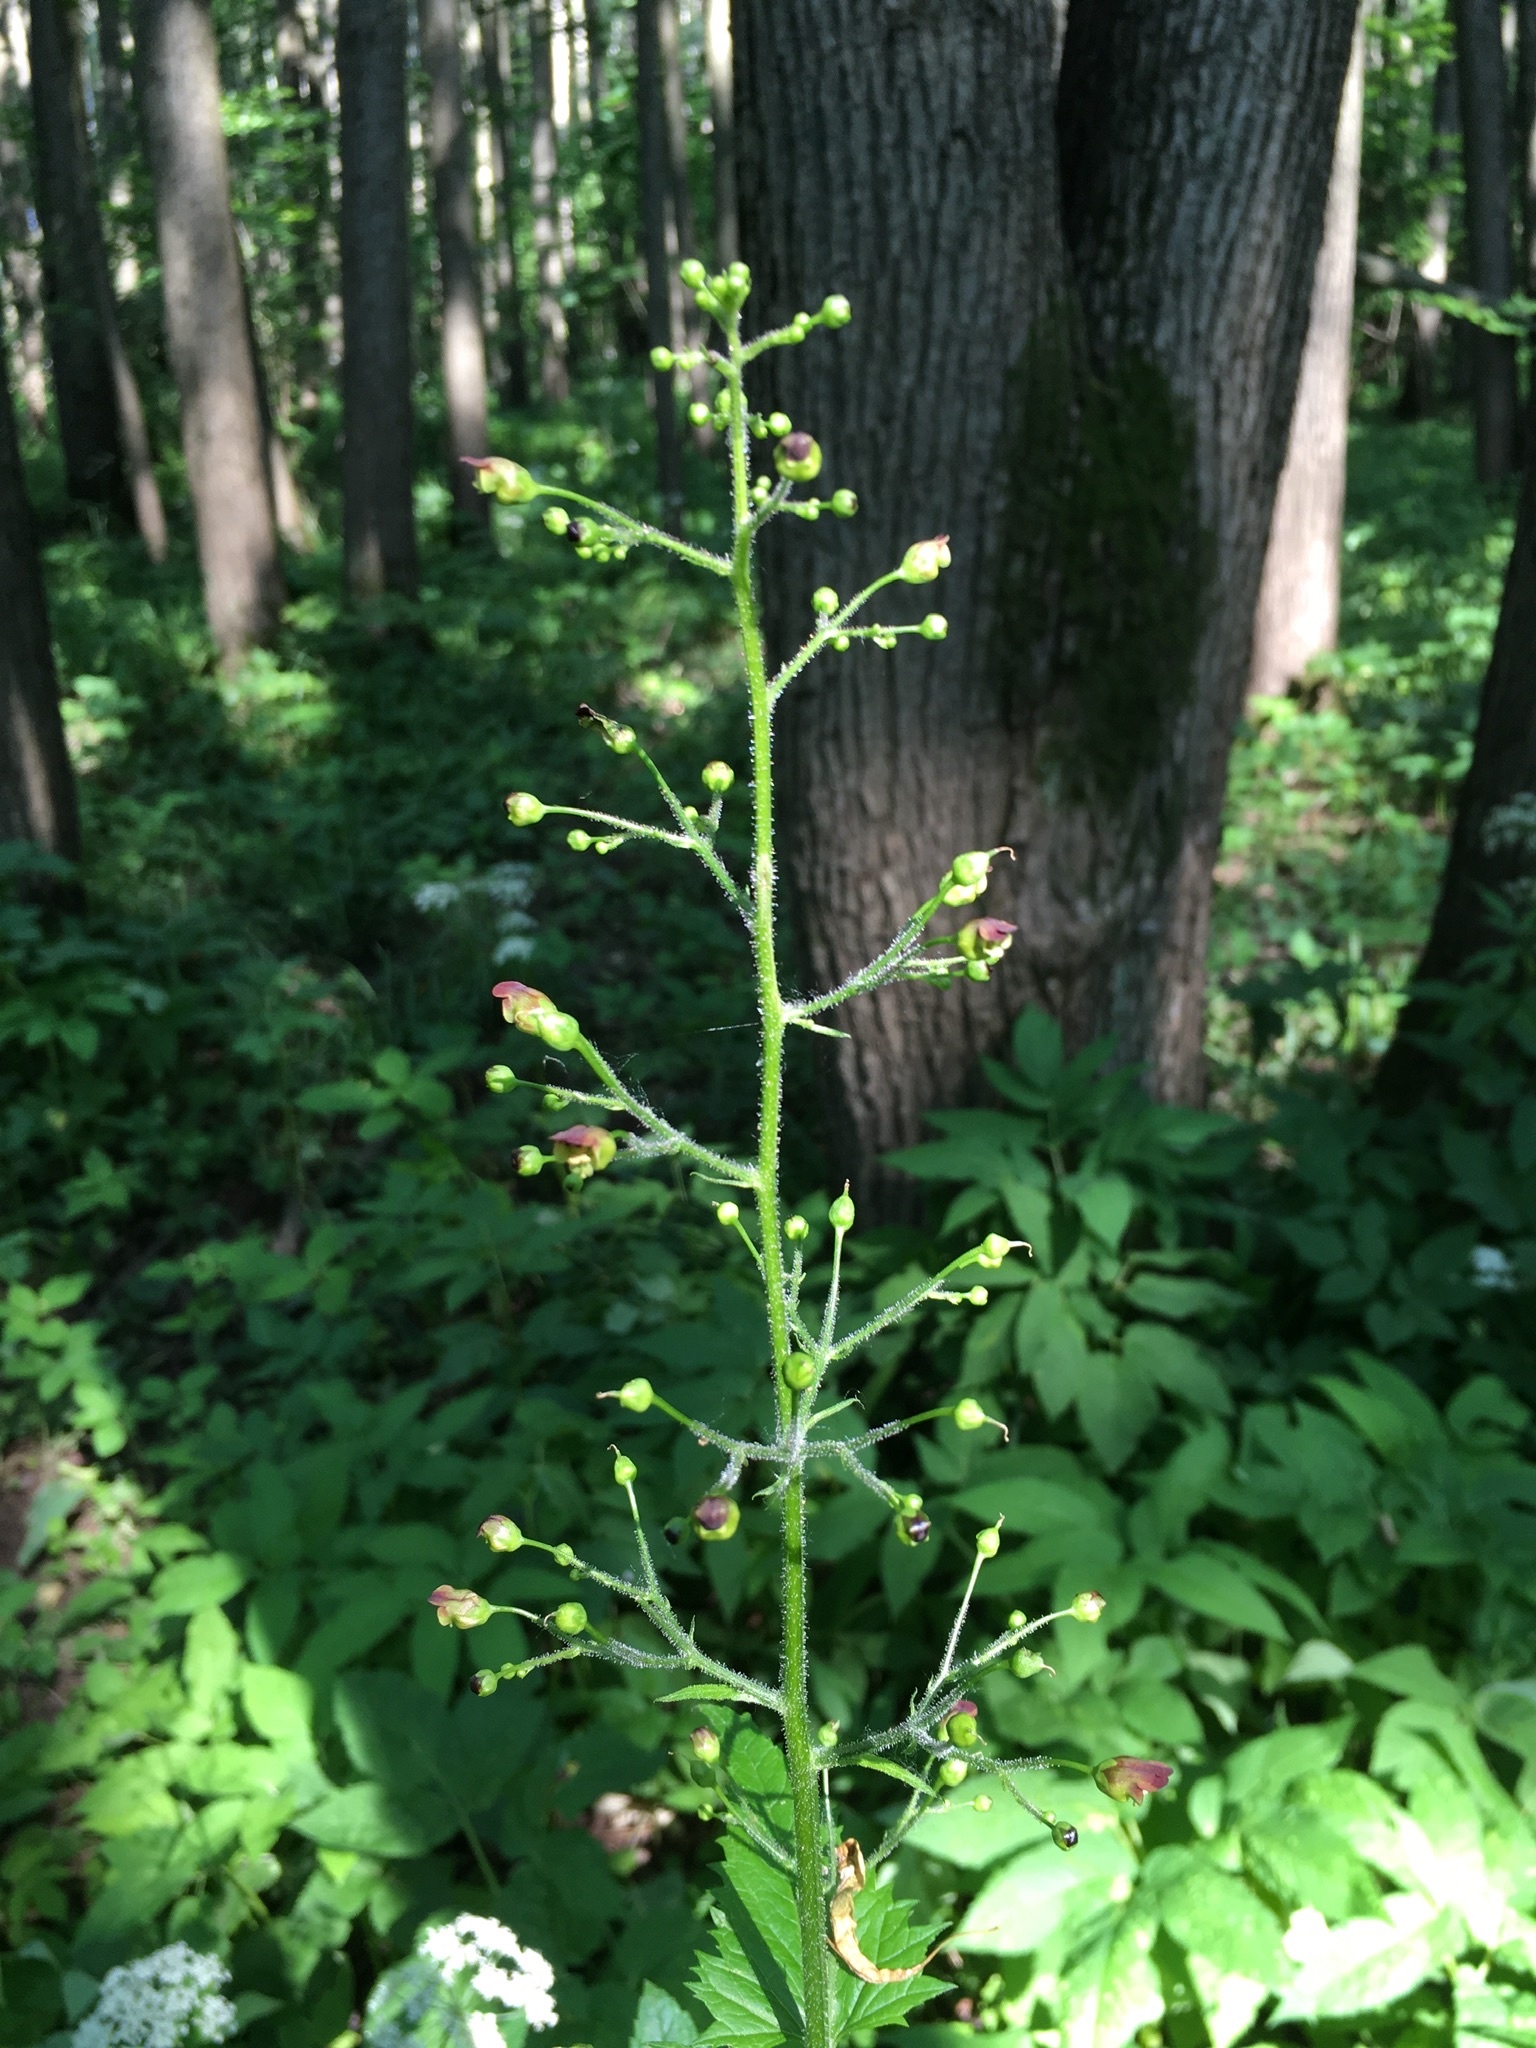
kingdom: Plantae
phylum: Tracheophyta
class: Magnoliopsida
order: Lamiales
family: Scrophulariaceae
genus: Scrophularia
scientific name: Scrophularia nodosa
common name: Common figwort
